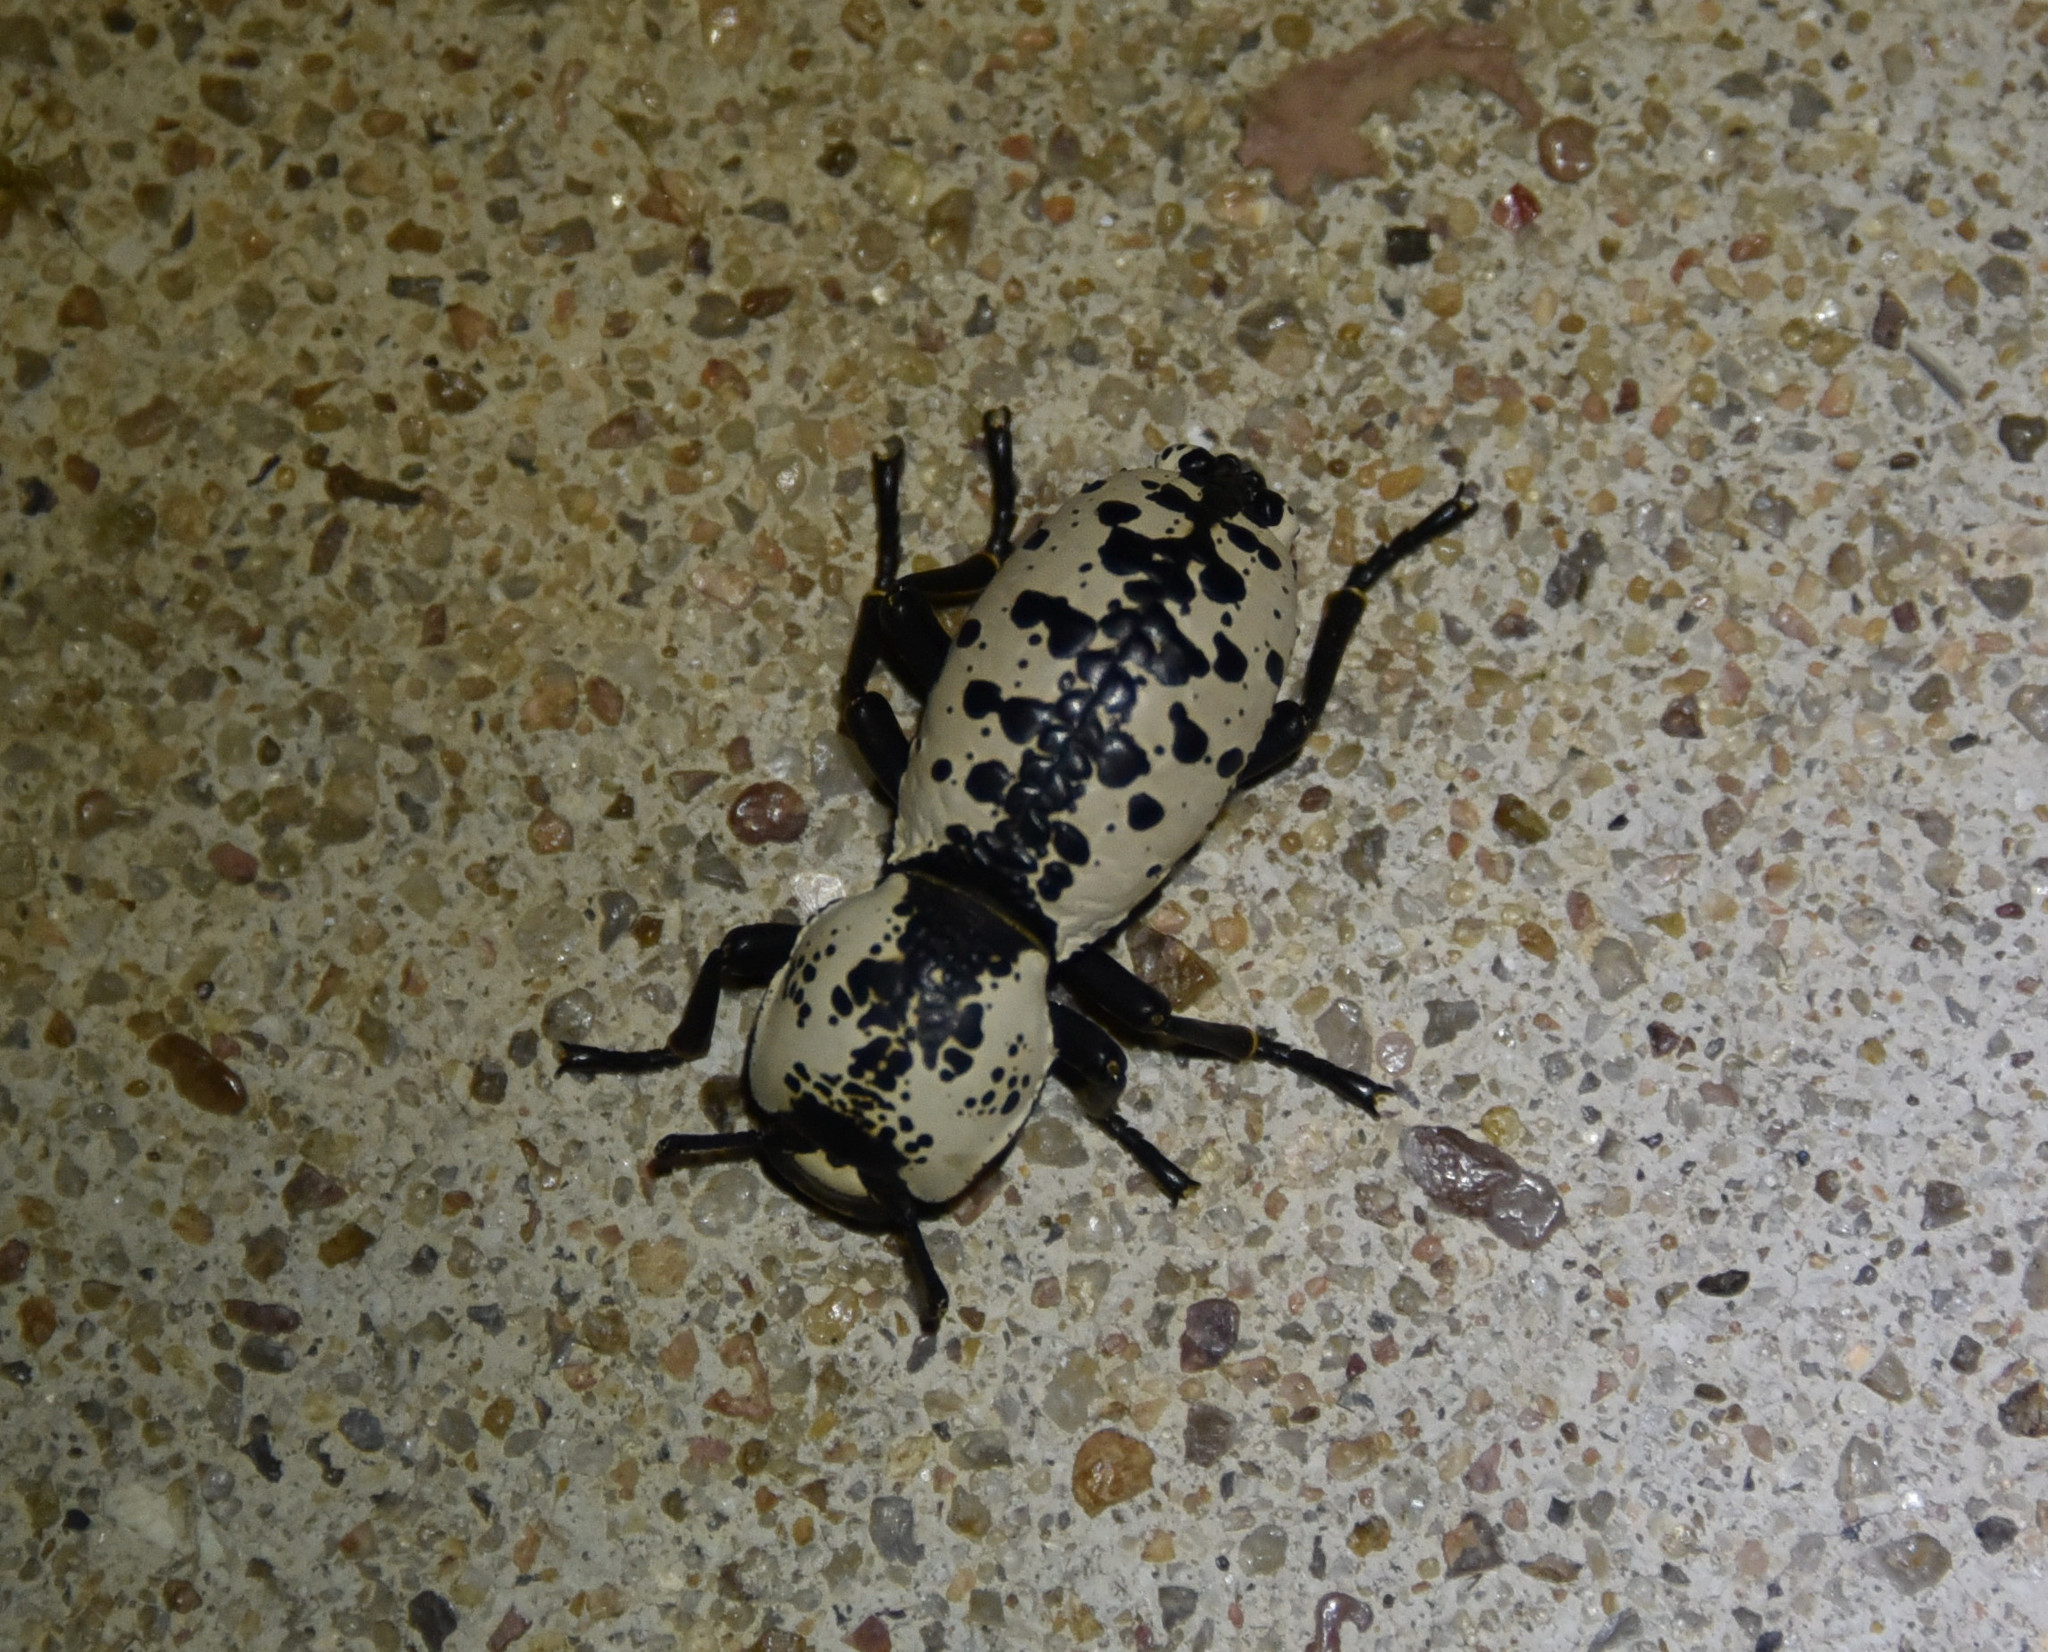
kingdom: Animalia
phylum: Arthropoda
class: Insecta
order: Coleoptera
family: Zopheridae
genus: Zopherus
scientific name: Zopherus nodulosus
